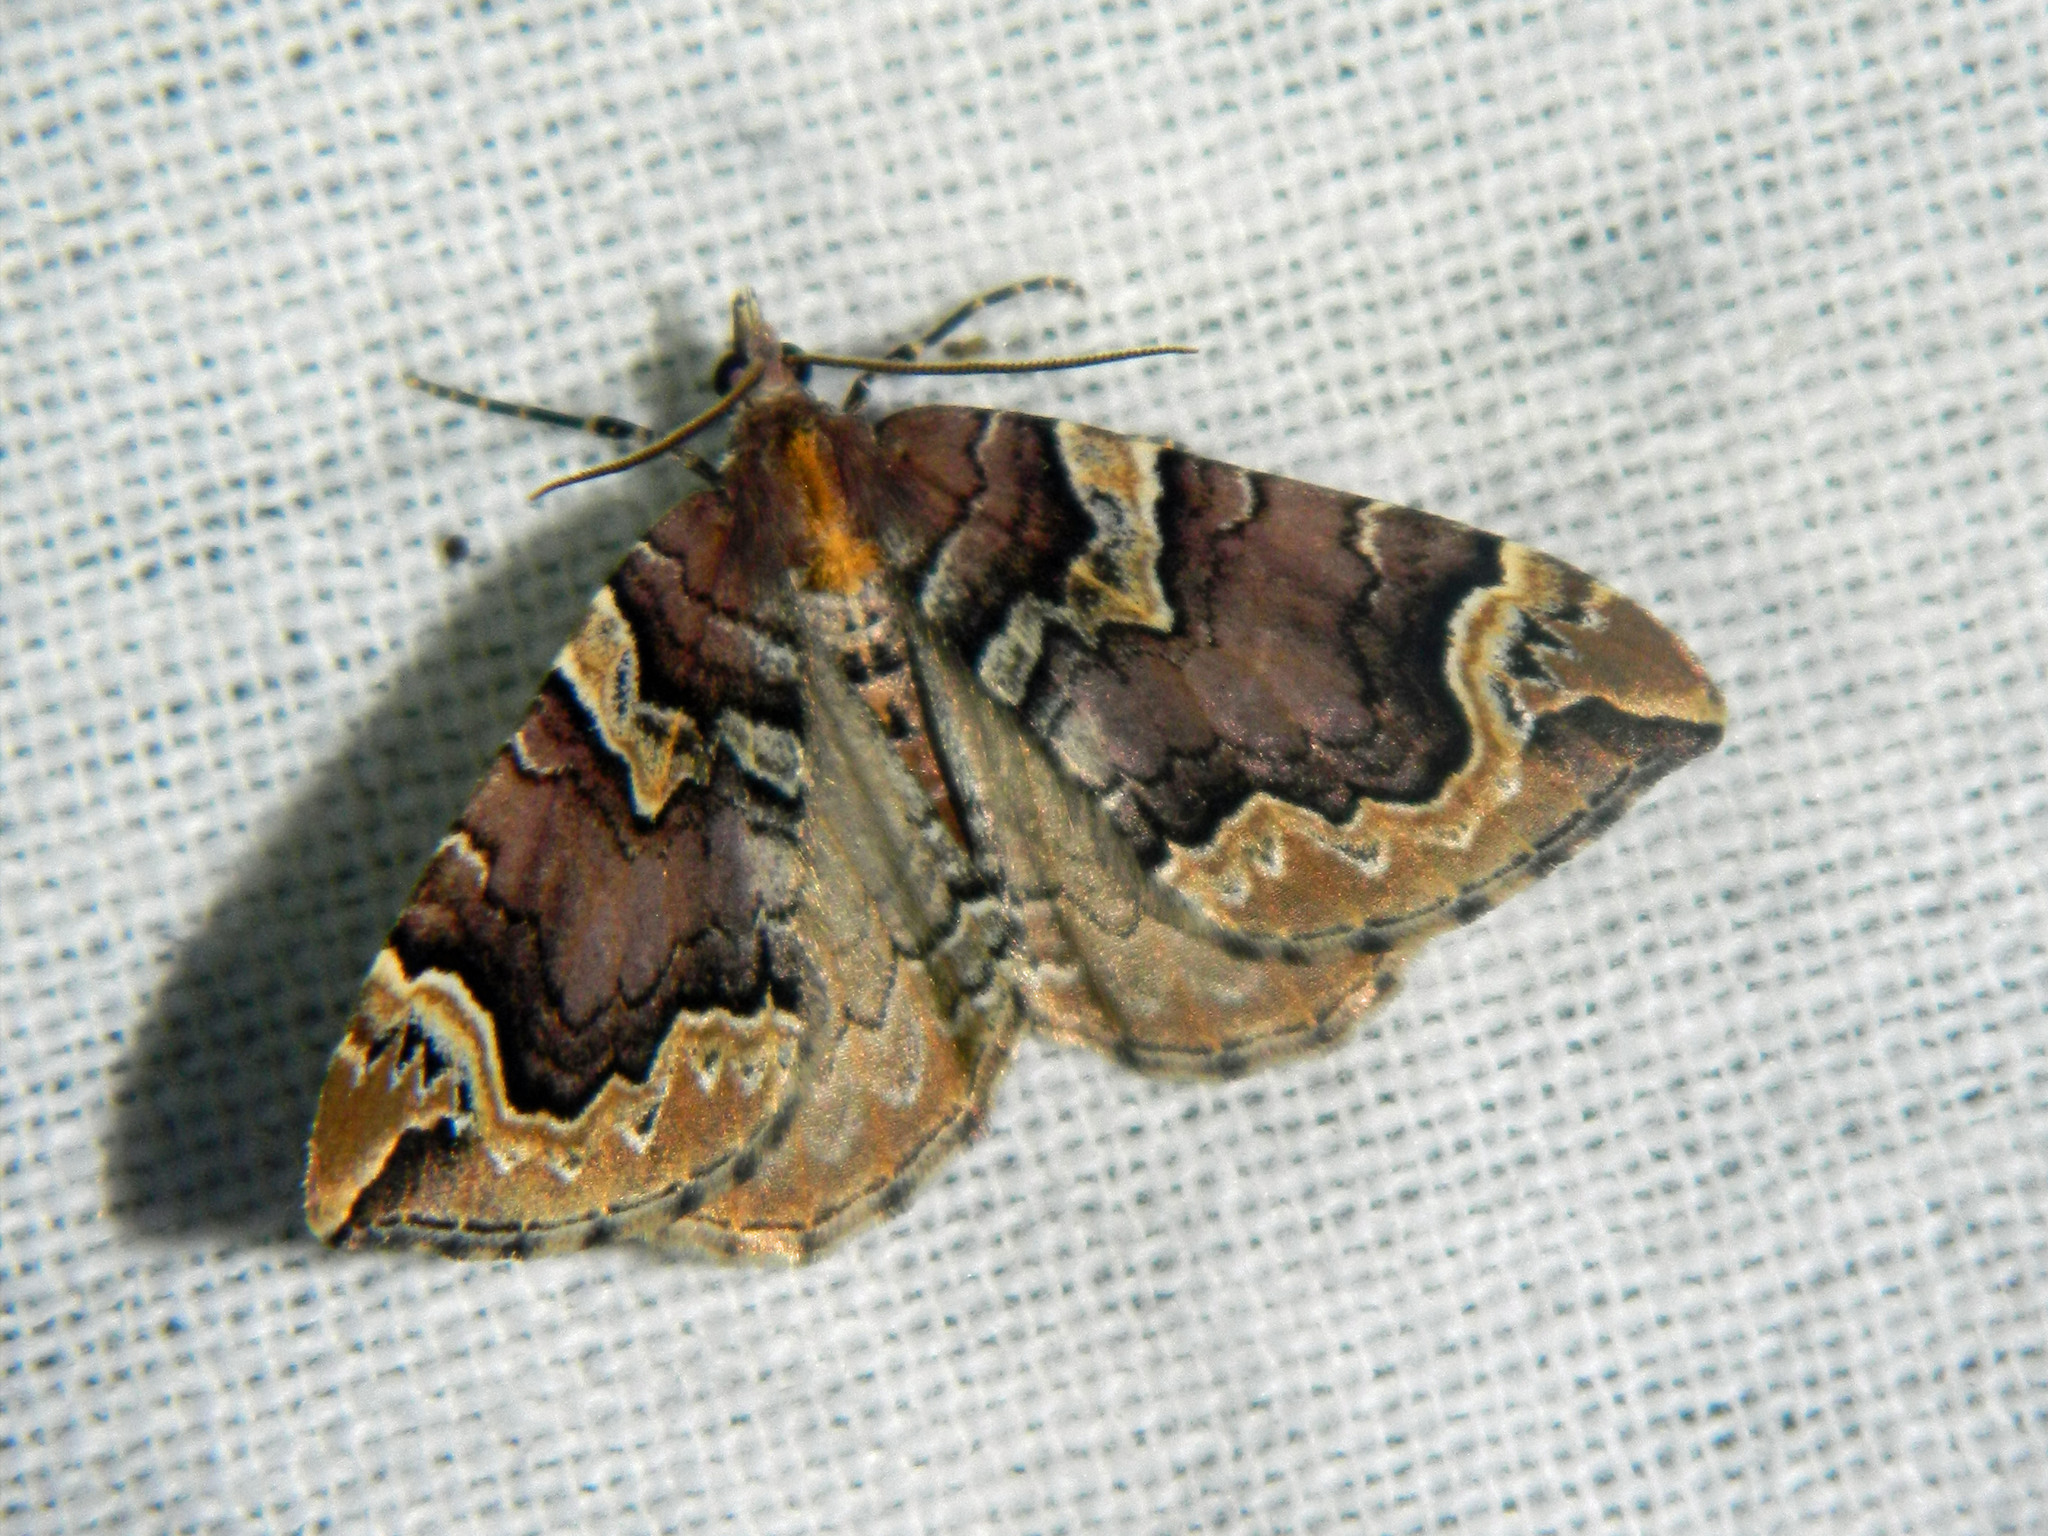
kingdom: Animalia
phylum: Arthropoda
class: Insecta
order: Lepidoptera
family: Geometridae
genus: Eulithis
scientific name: Eulithis serrataria
